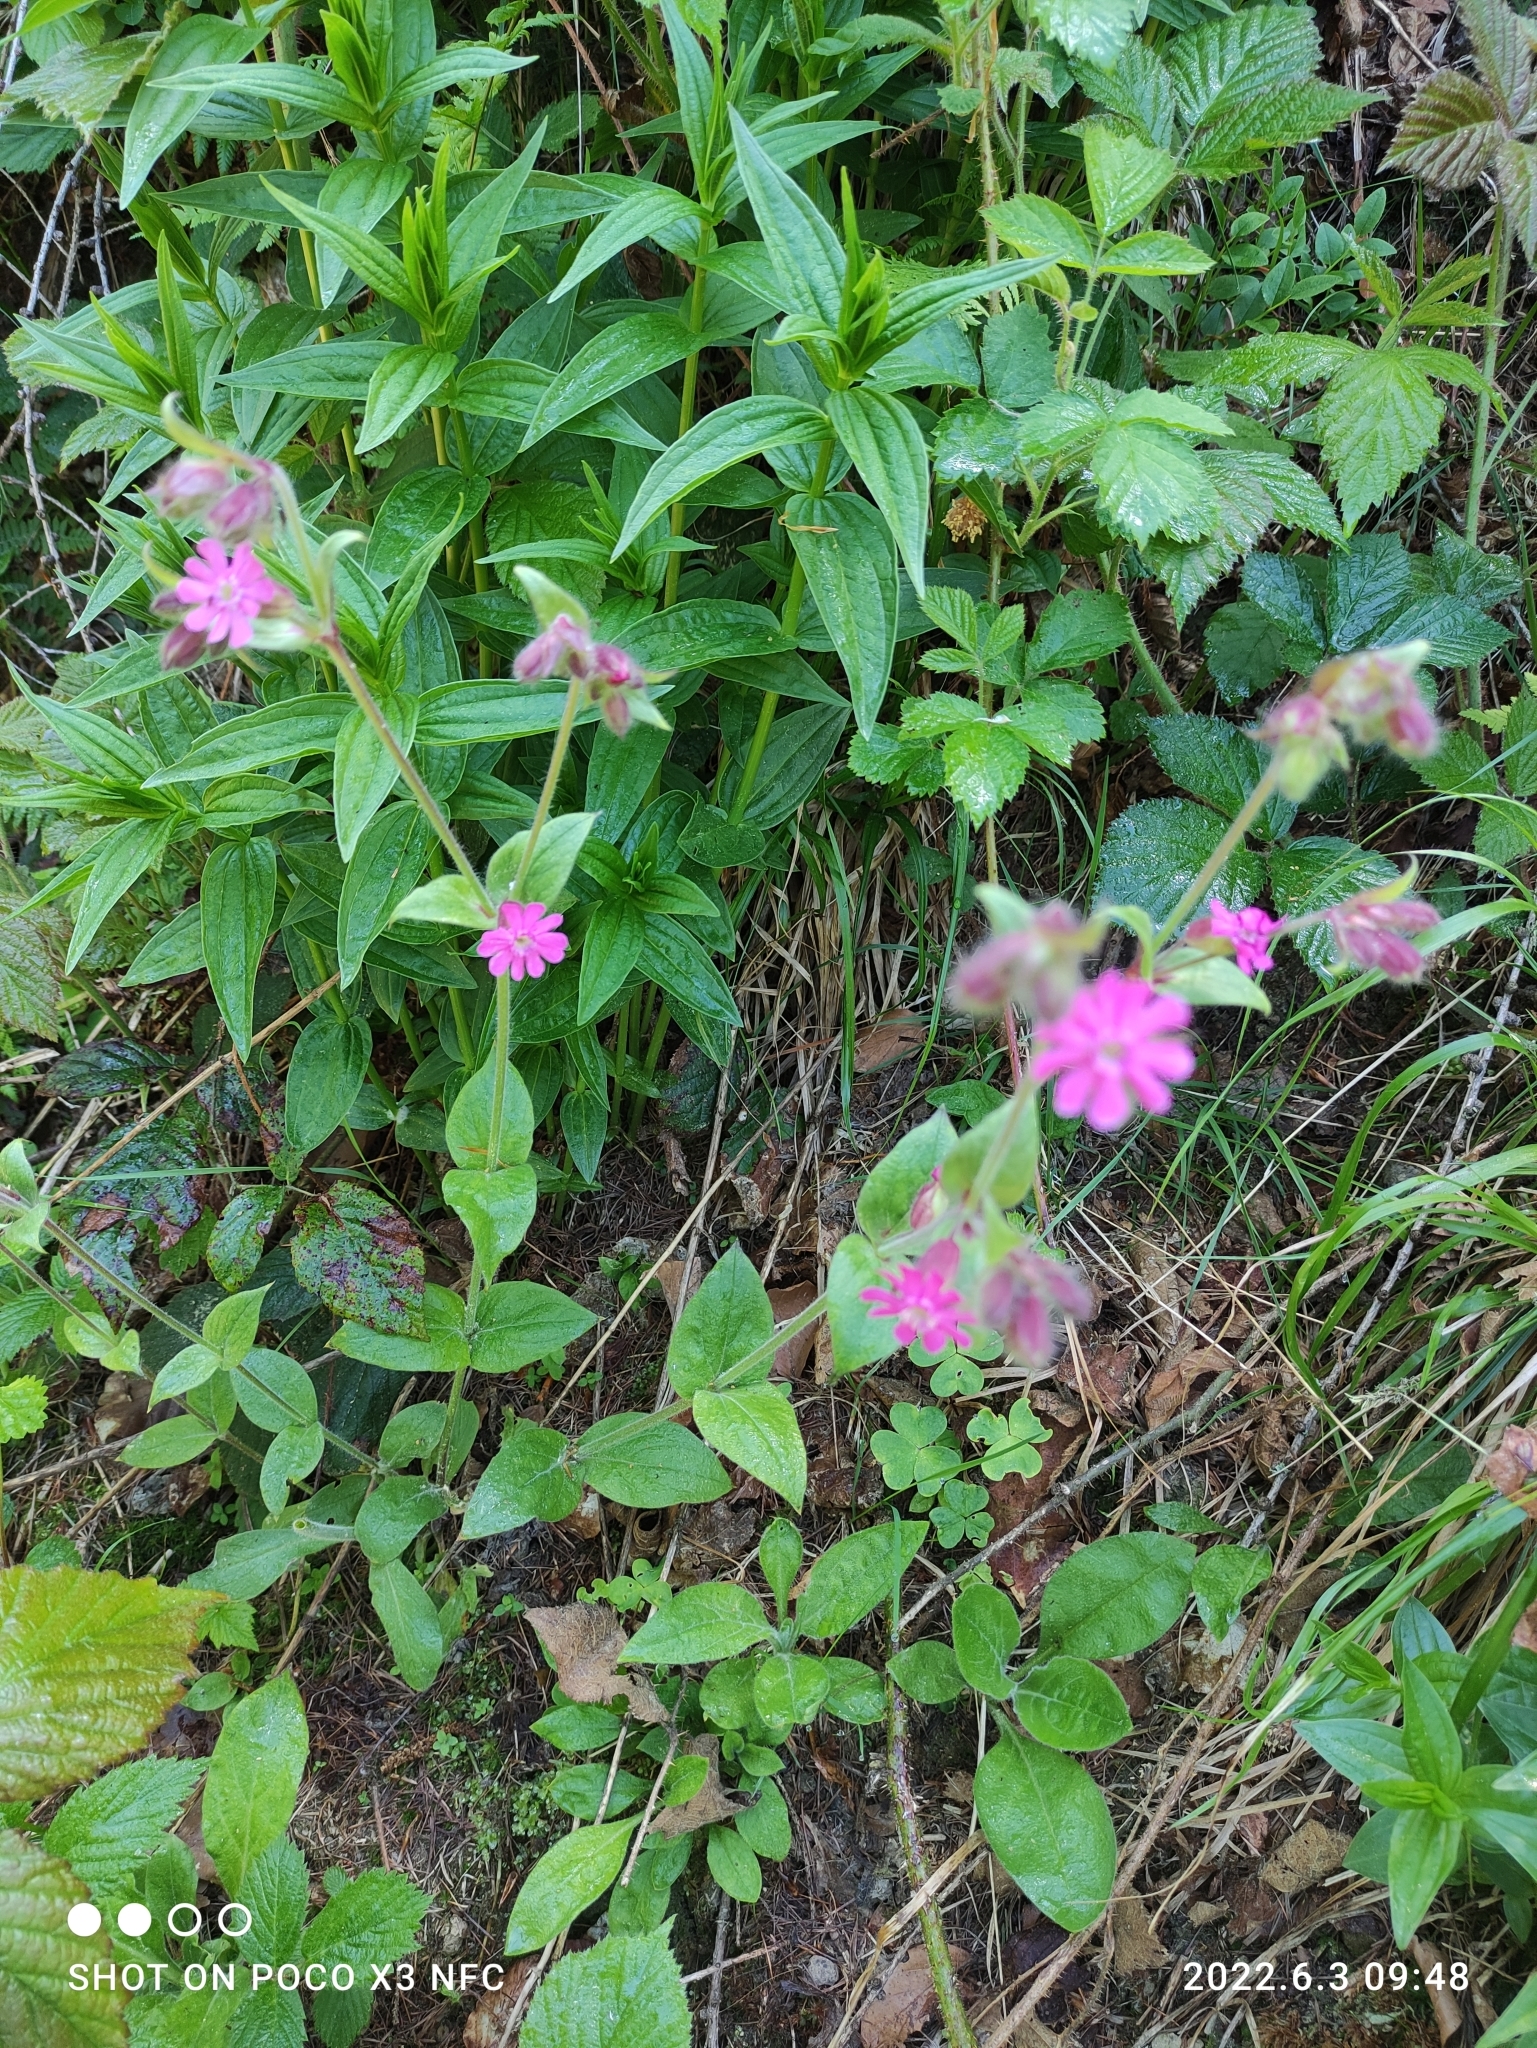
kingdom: Plantae
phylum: Tracheophyta
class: Magnoliopsida
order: Caryophyllales
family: Caryophyllaceae
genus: Silene
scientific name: Silene dioica
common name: Red campion
